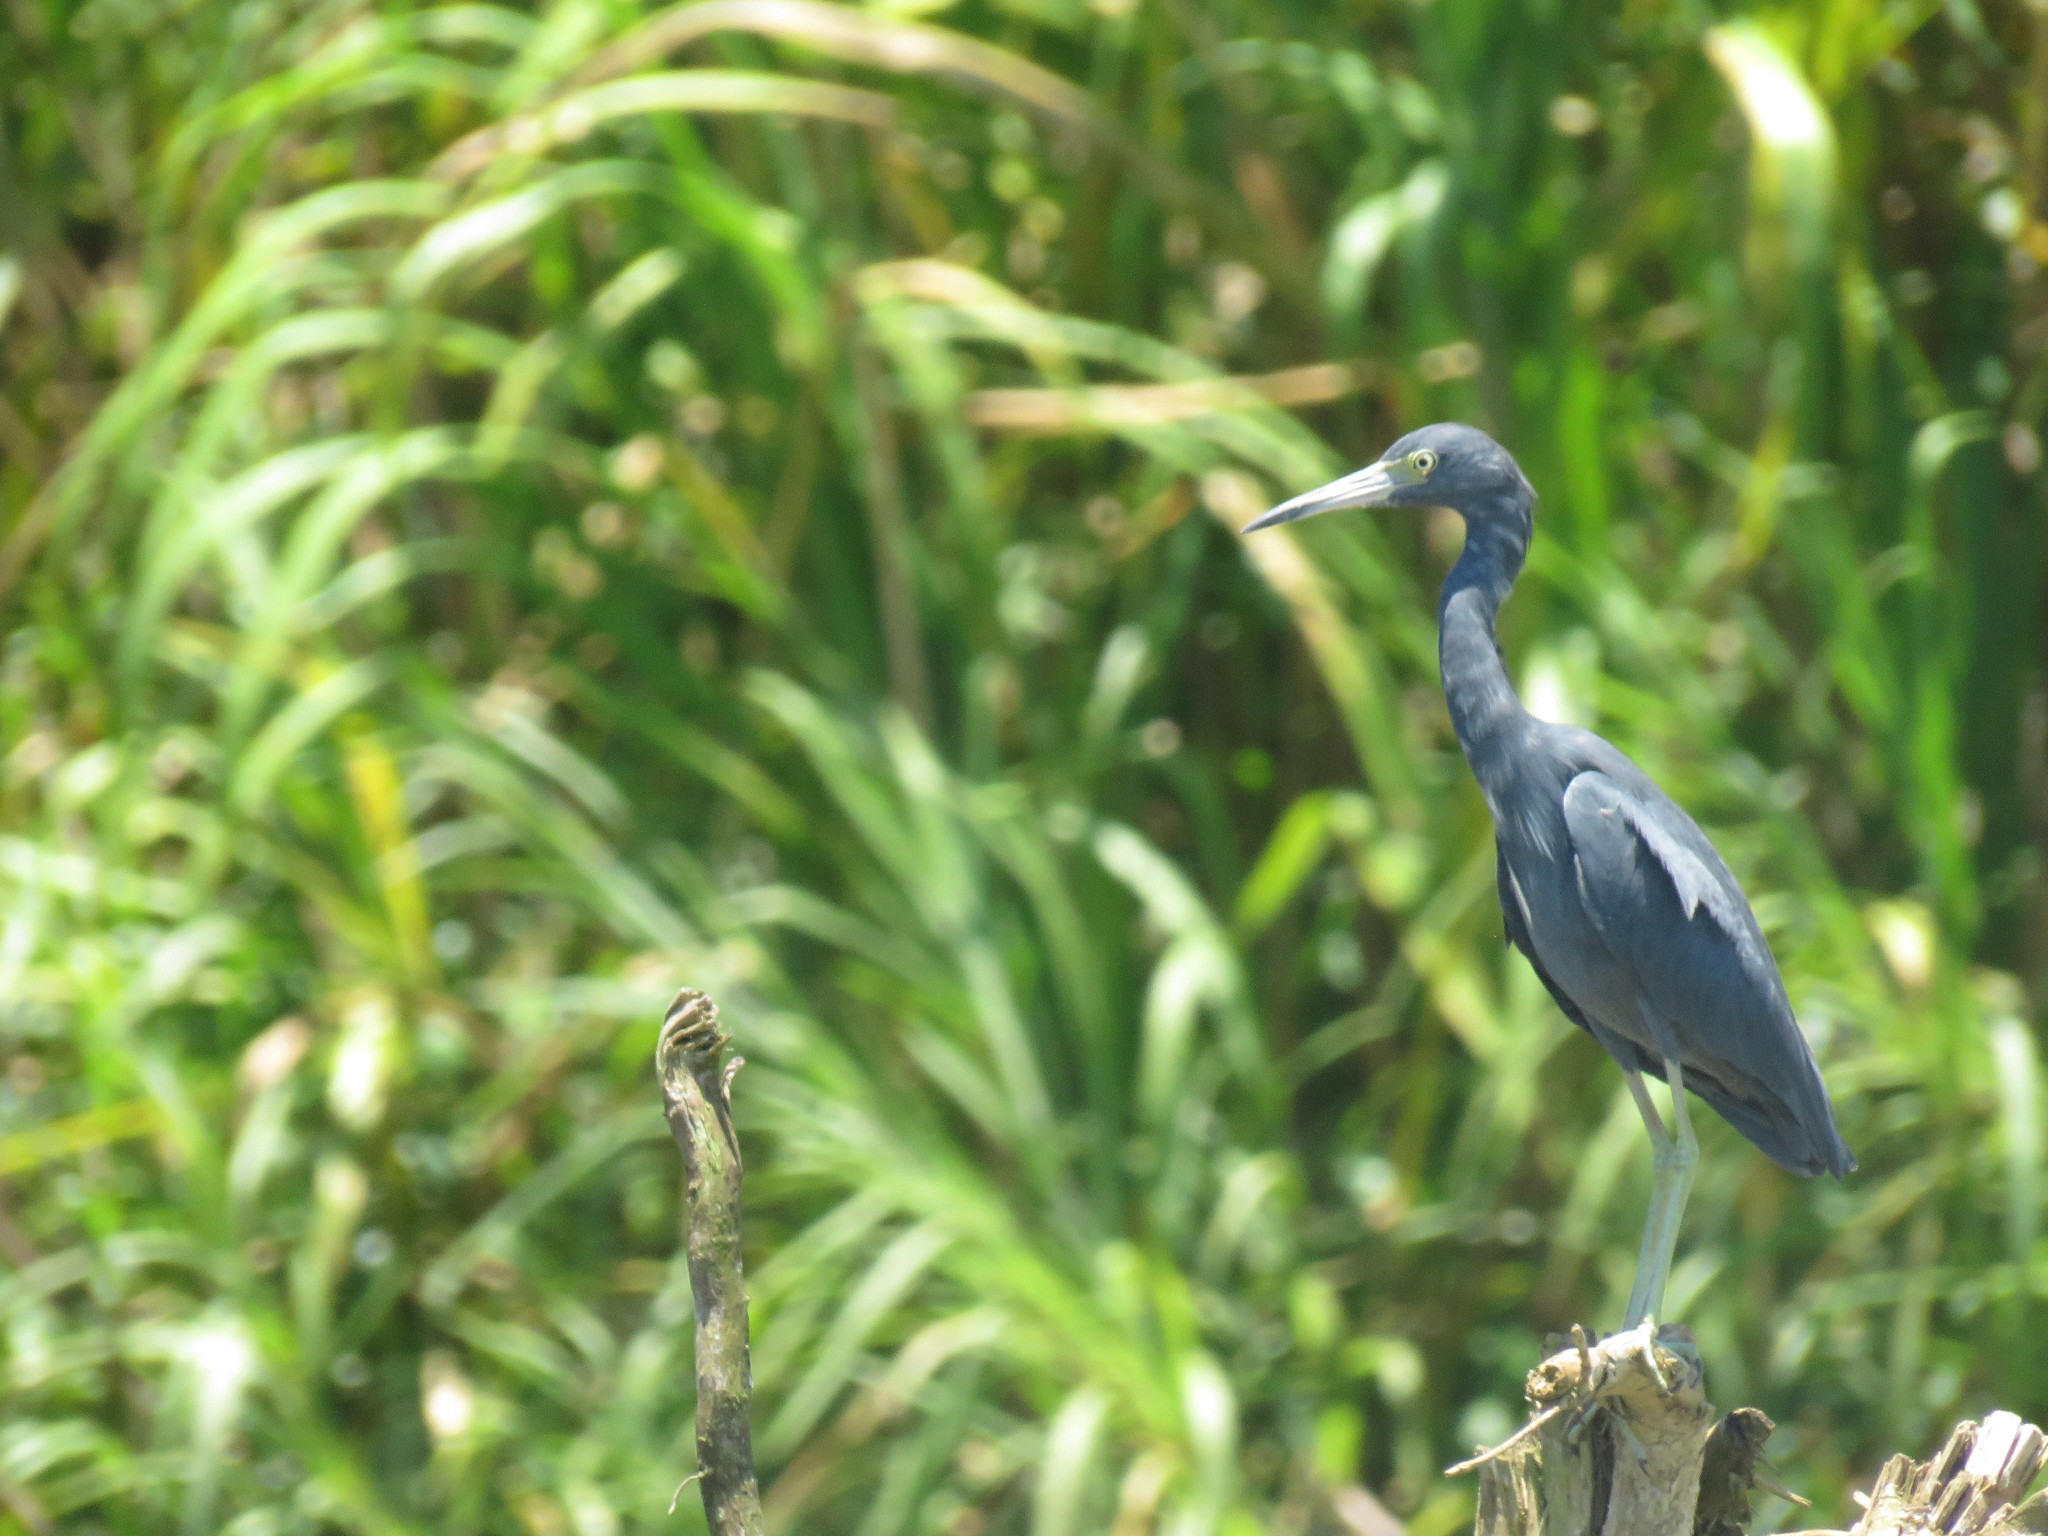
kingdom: Animalia
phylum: Chordata
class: Aves
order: Pelecaniformes
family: Ardeidae
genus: Egretta
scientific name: Egretta caerulea
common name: Little blue heron
